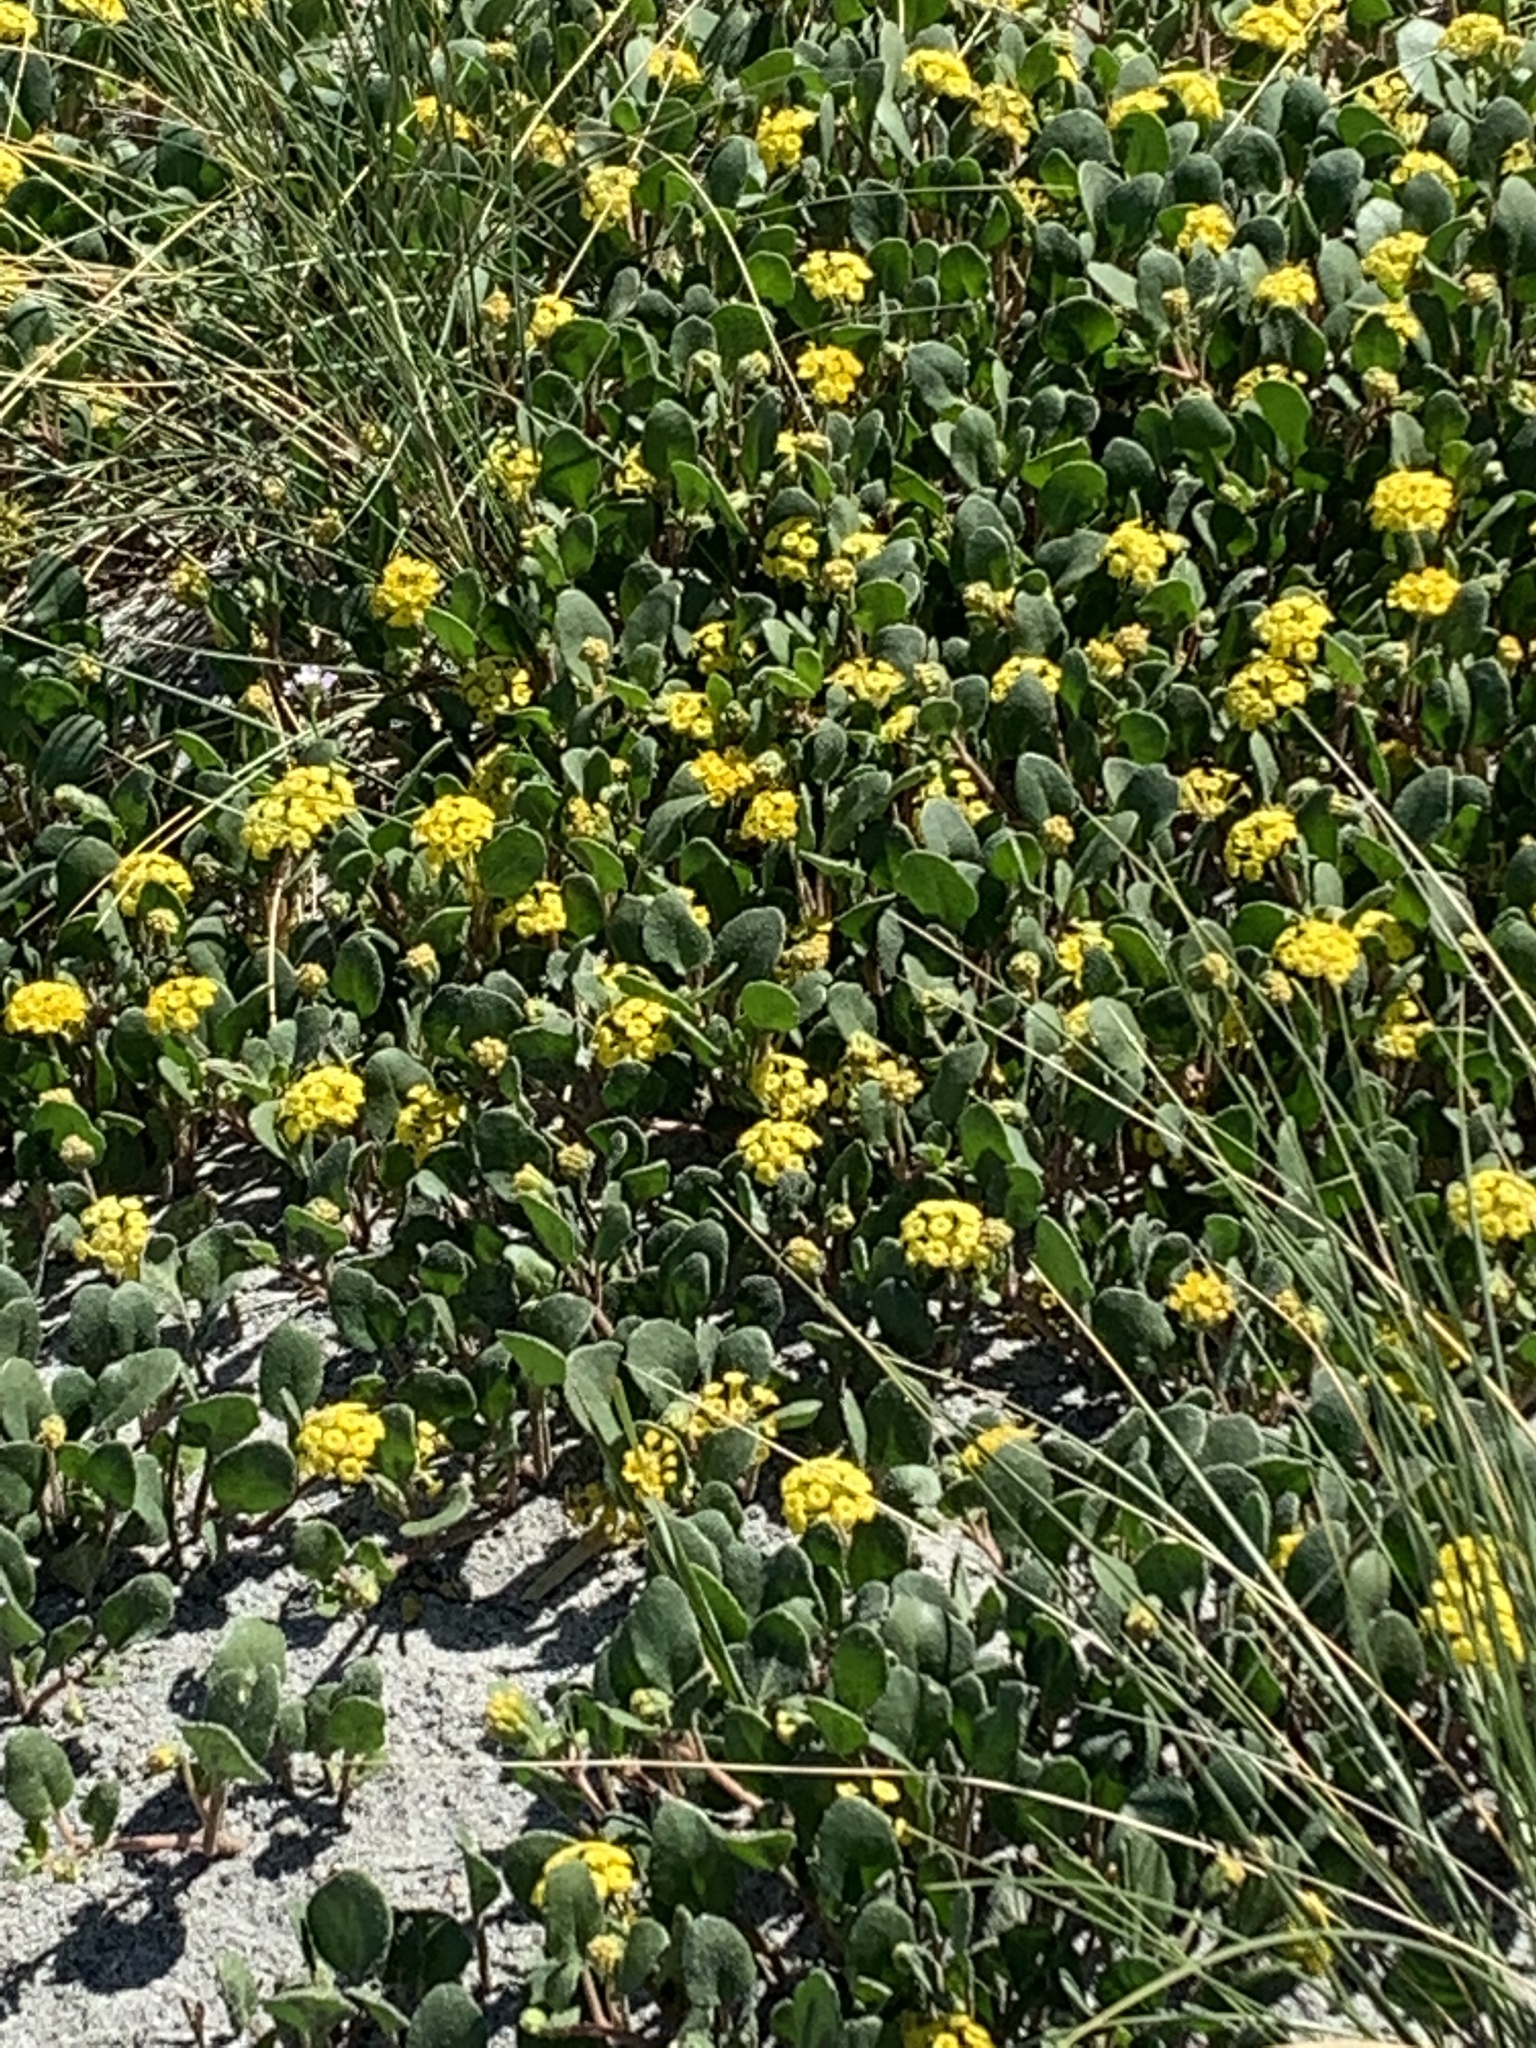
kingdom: Plantae
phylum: Tracheophyta
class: Magnoliopsida
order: Caryophyllales
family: Nyctaginaceae
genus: Abronia
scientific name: Abronia latifolia
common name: Yellow sand-verbena
